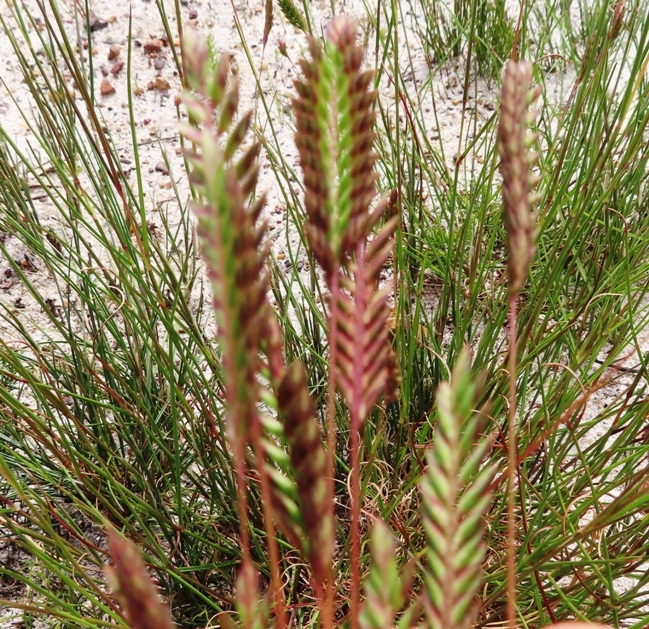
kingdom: Plantae
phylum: Tracheophyta
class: Liliopsida
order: Poales
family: Poaceae
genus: Tribolium
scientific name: Tribolium uniolae
